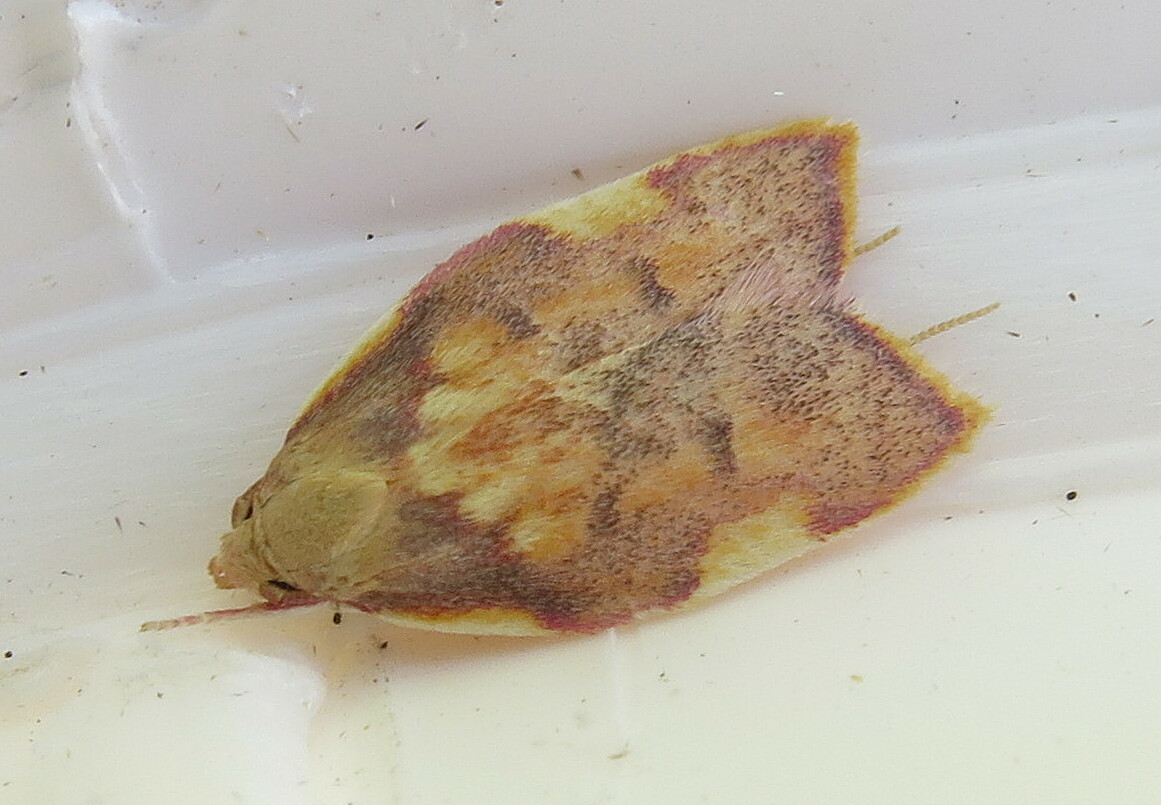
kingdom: Animalia
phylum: Arthropoda
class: Insecta
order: Lepidoptera
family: Peleopodidae
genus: Carcina
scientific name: Carcina quercana
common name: Moth
